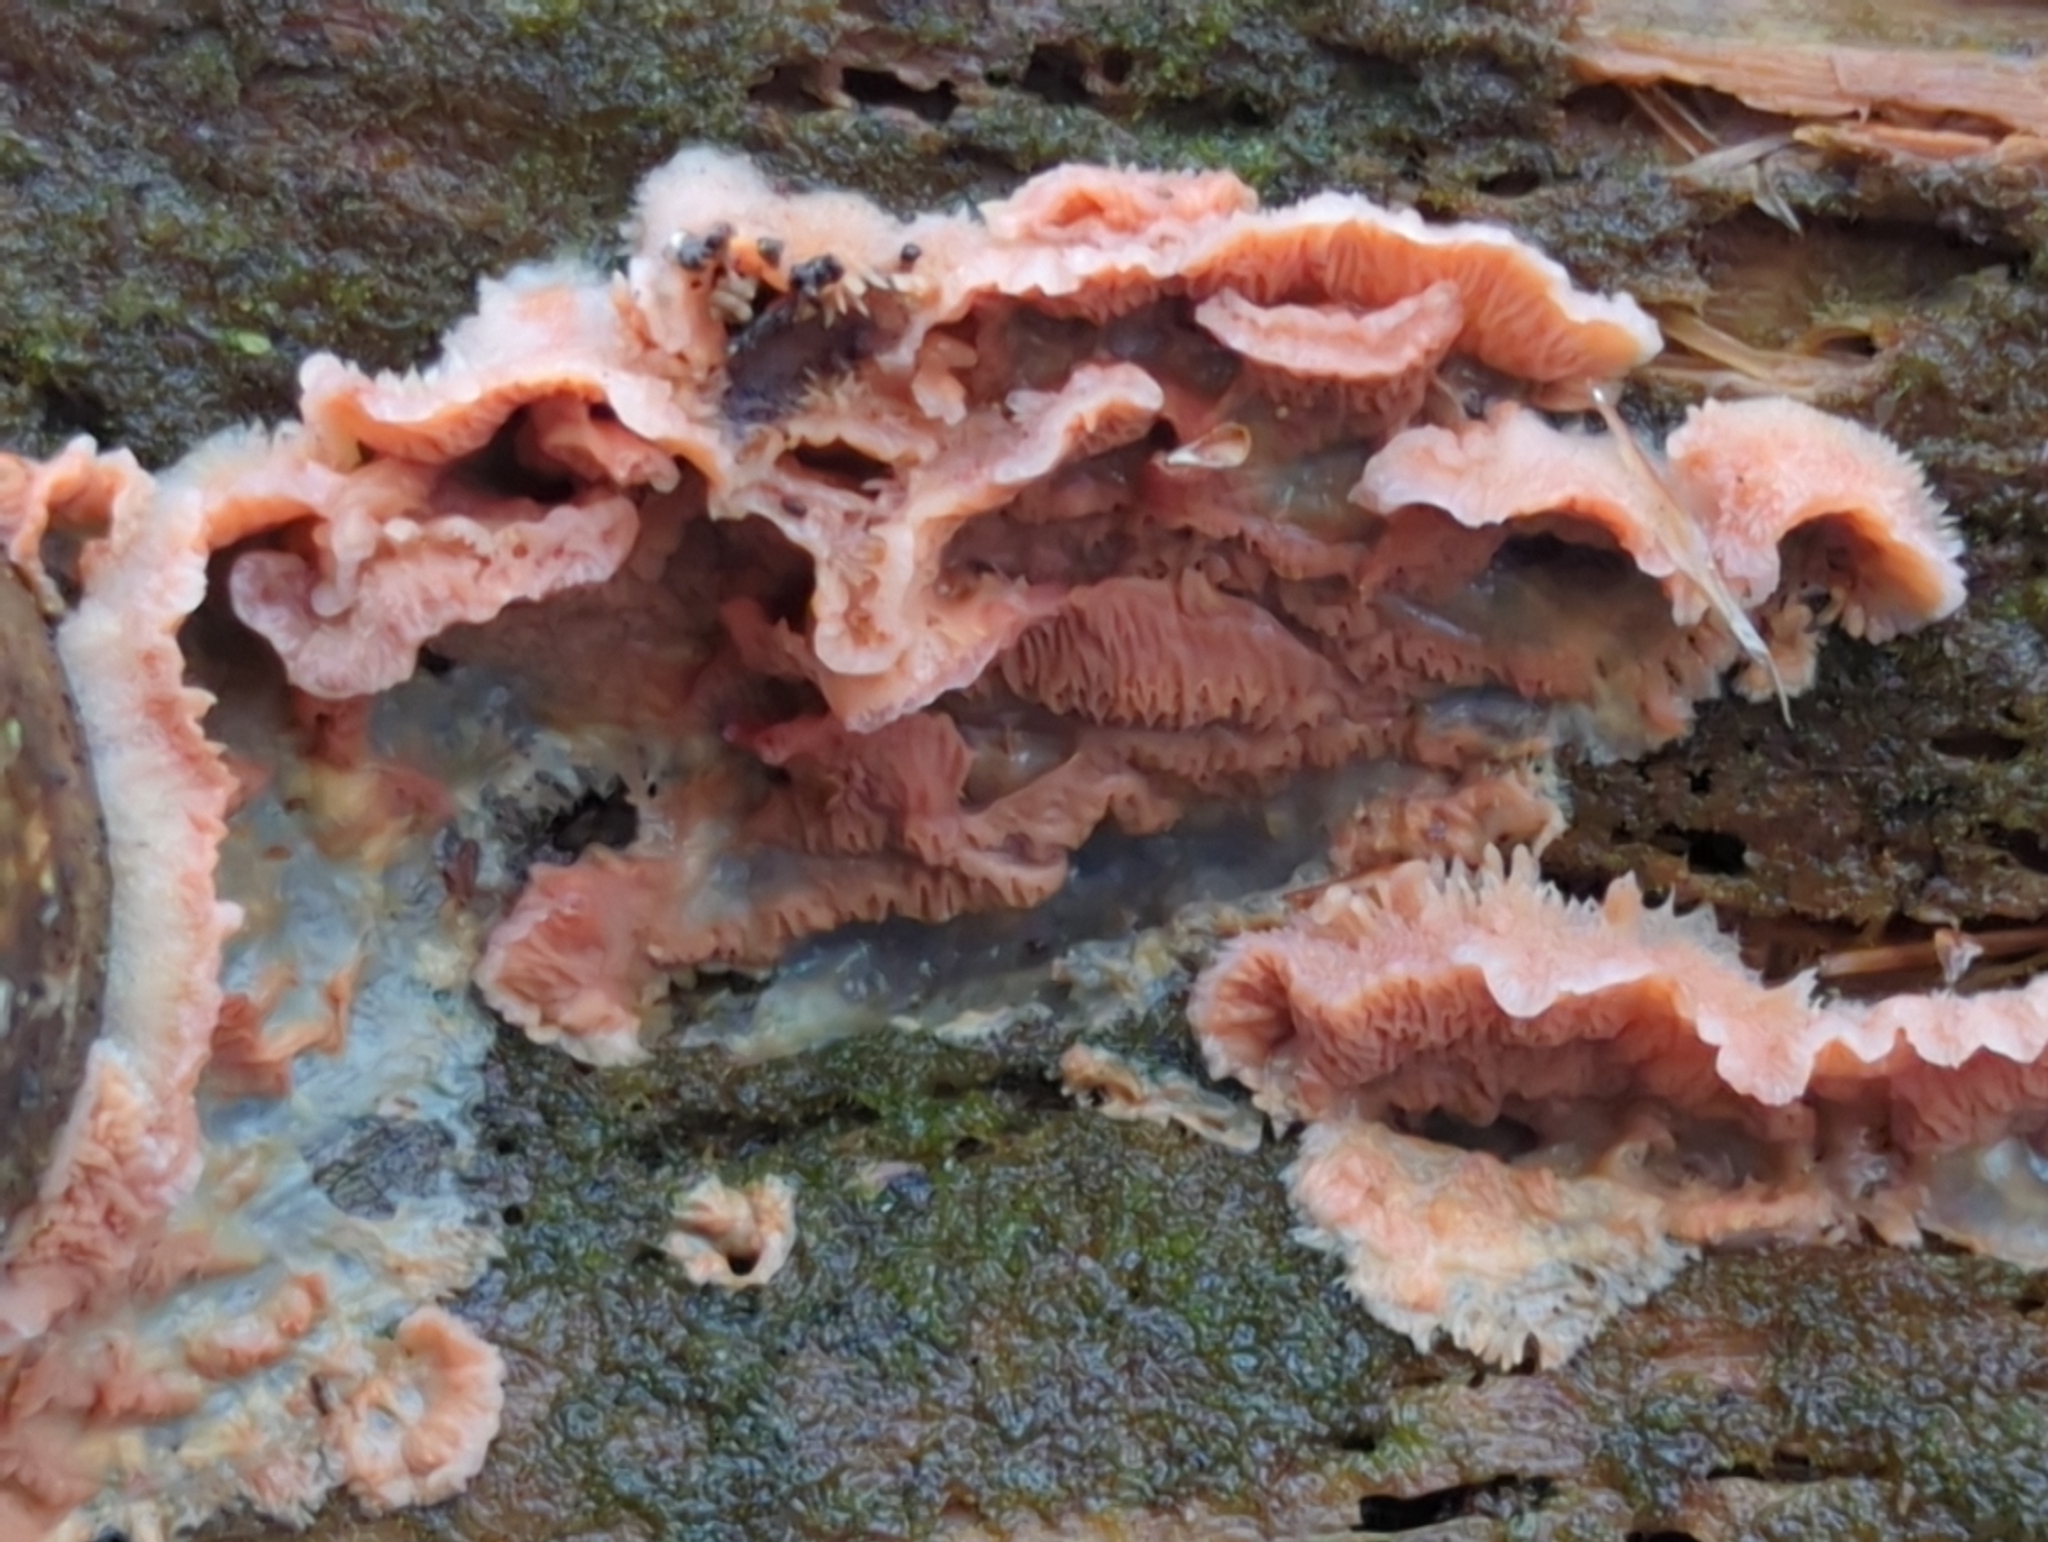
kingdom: Fungi
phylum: Basidiomycota
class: Agaricomycetes
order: Polyporales
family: Meruliaceae
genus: Phlebia
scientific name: Phlebia tremellosa
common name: Jelly rot
